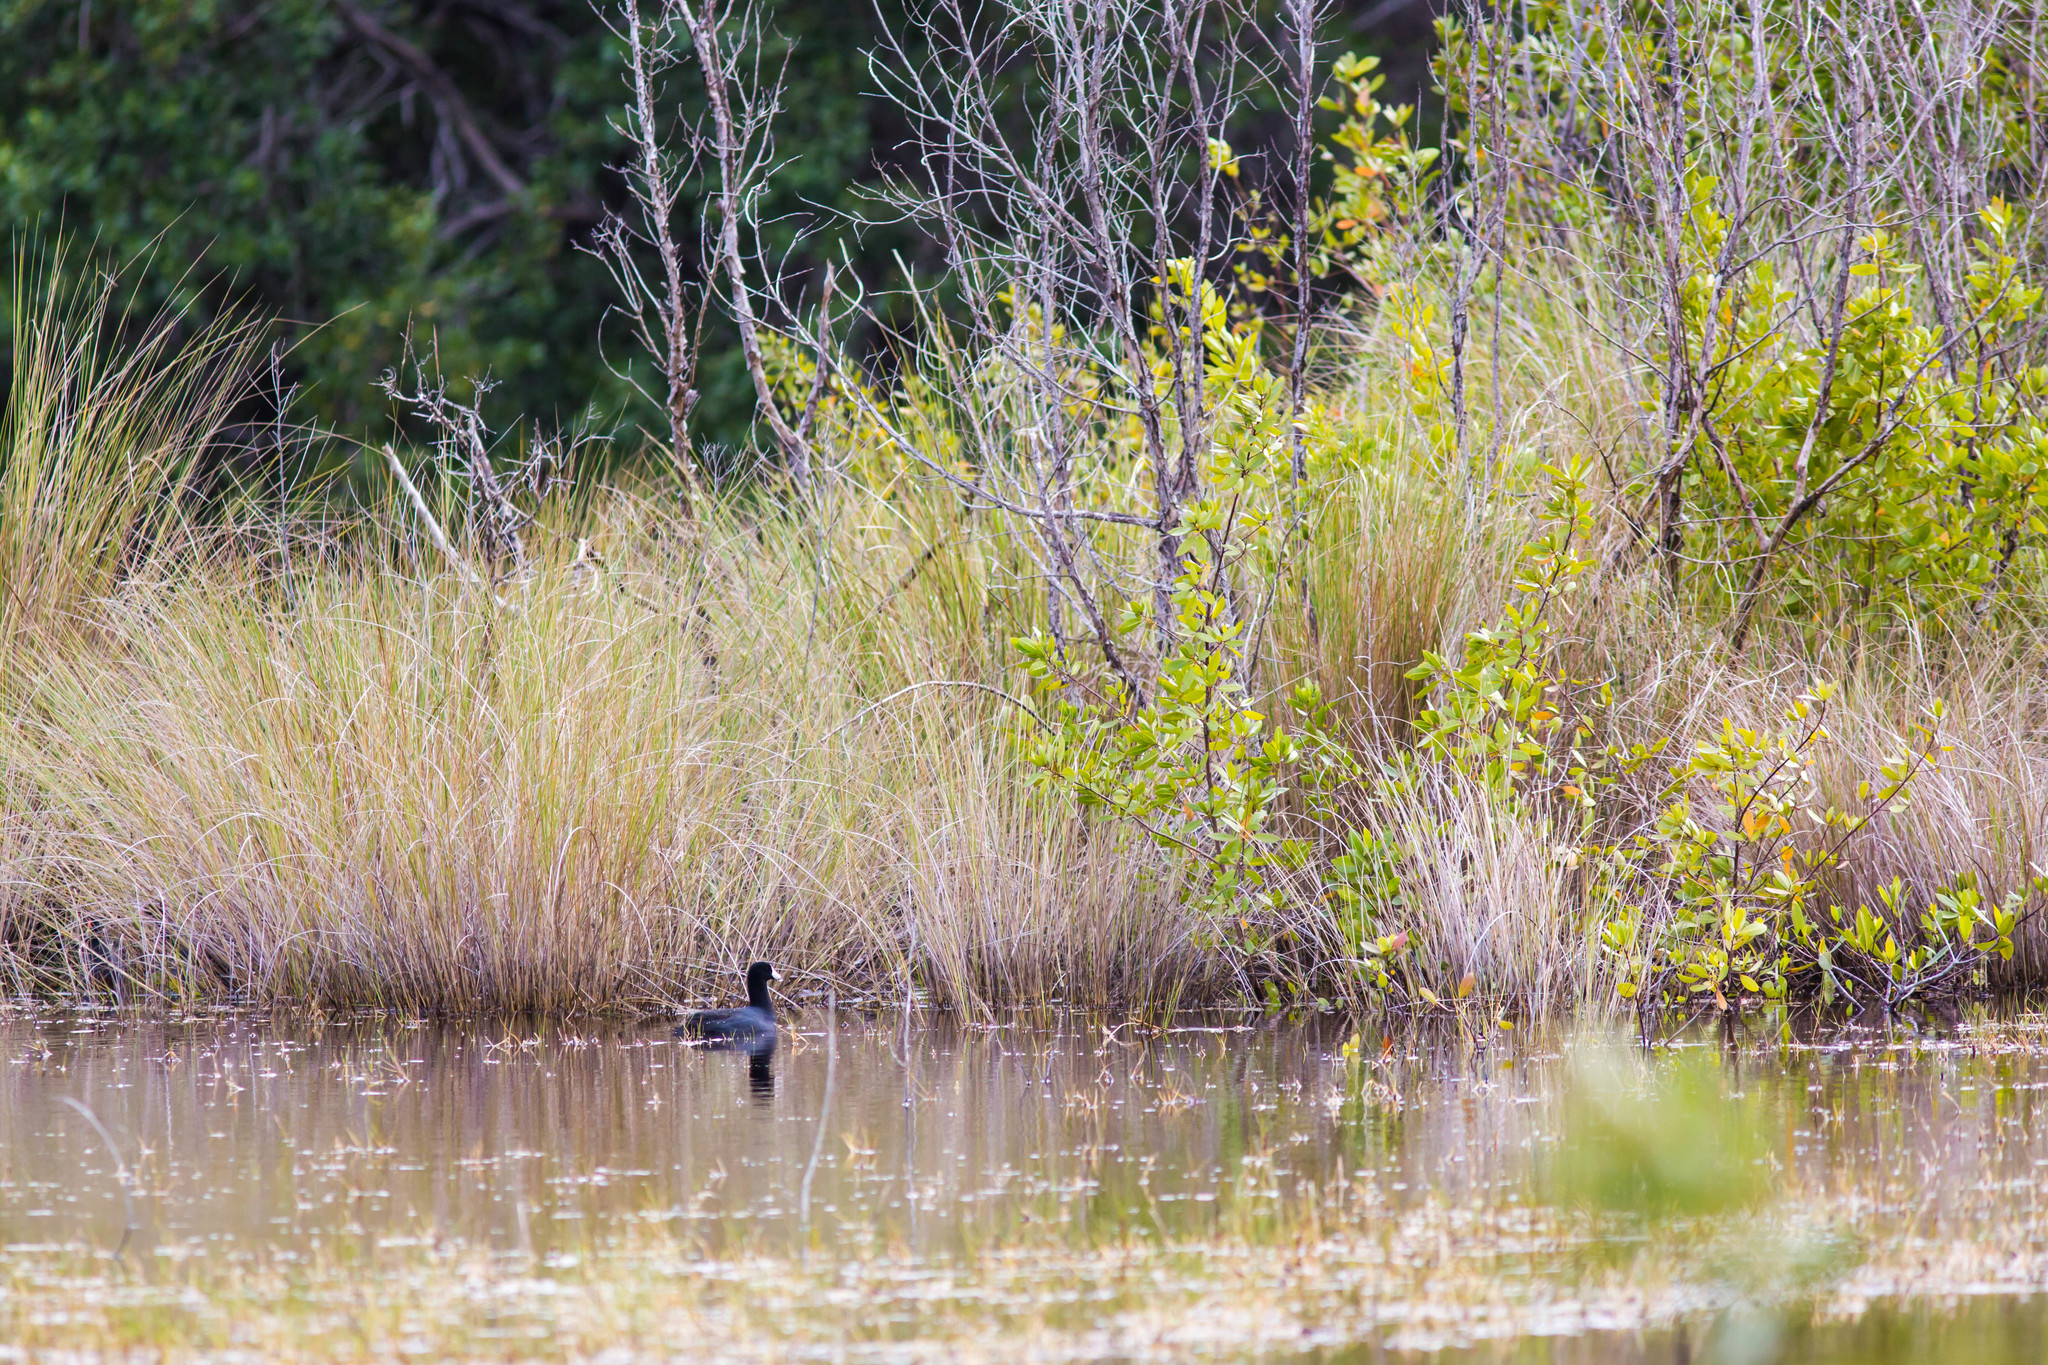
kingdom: Animalia
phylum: Chordata
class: Aves
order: Gruiformes
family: Rallidae
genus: Fulica
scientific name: Fulica americana
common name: American coot
